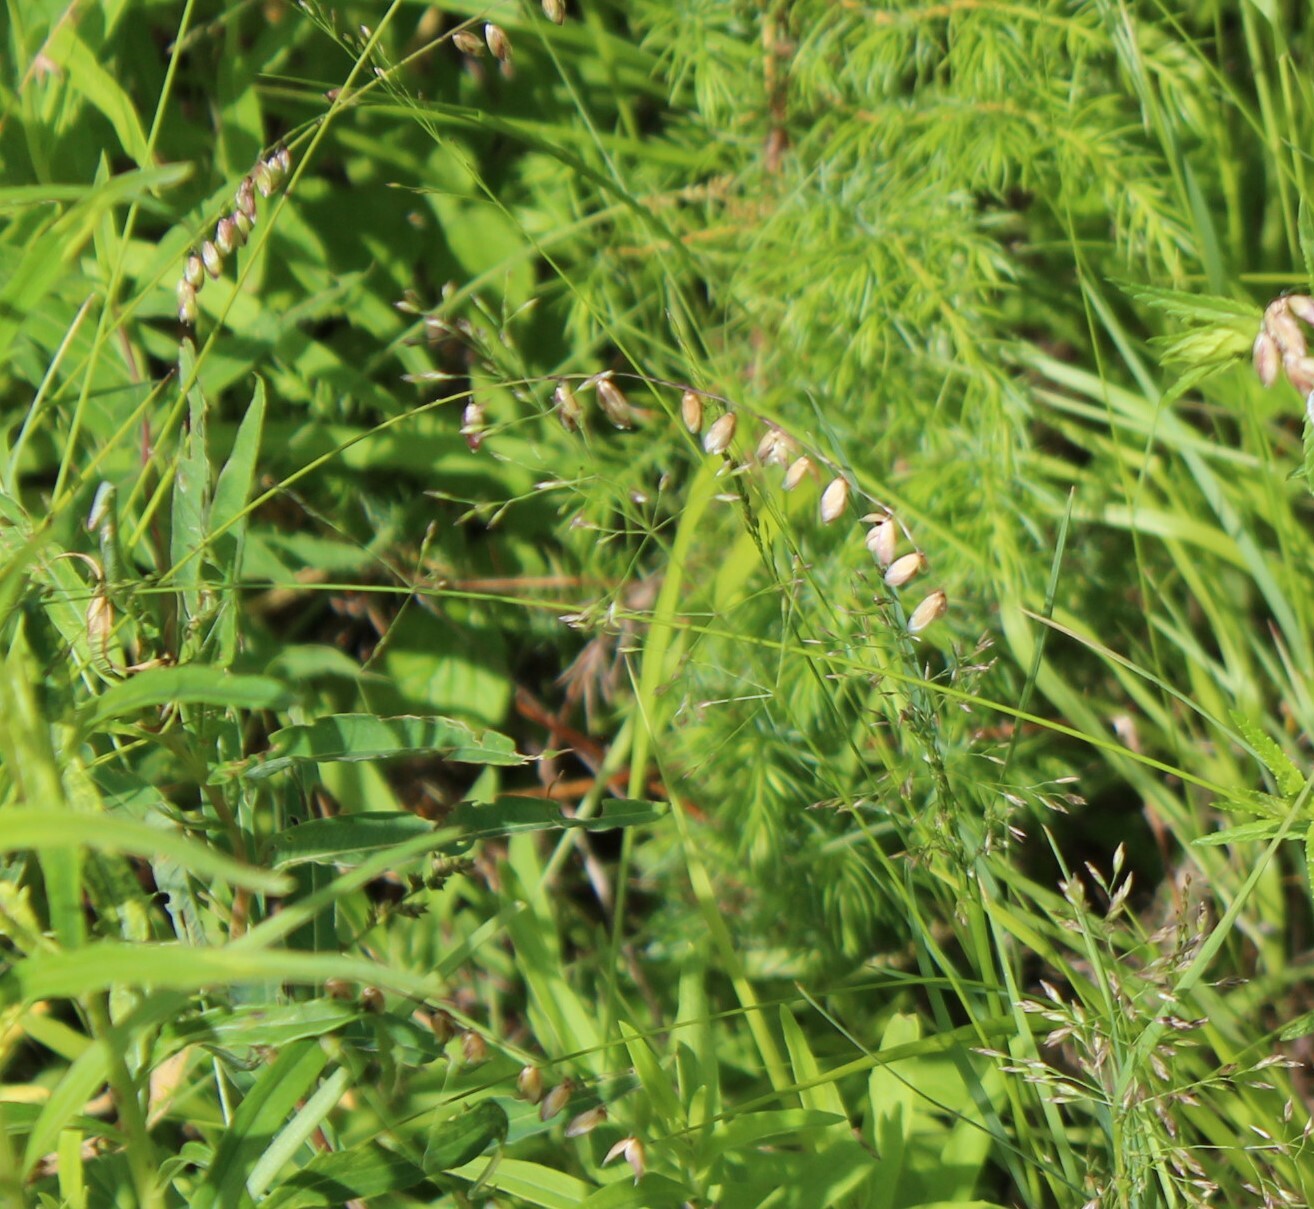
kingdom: Plantae
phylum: Tracheophyta
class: Liliopsida
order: Poales
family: Poaceae
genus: Melica
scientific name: Melica nutans
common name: Mountain melick
